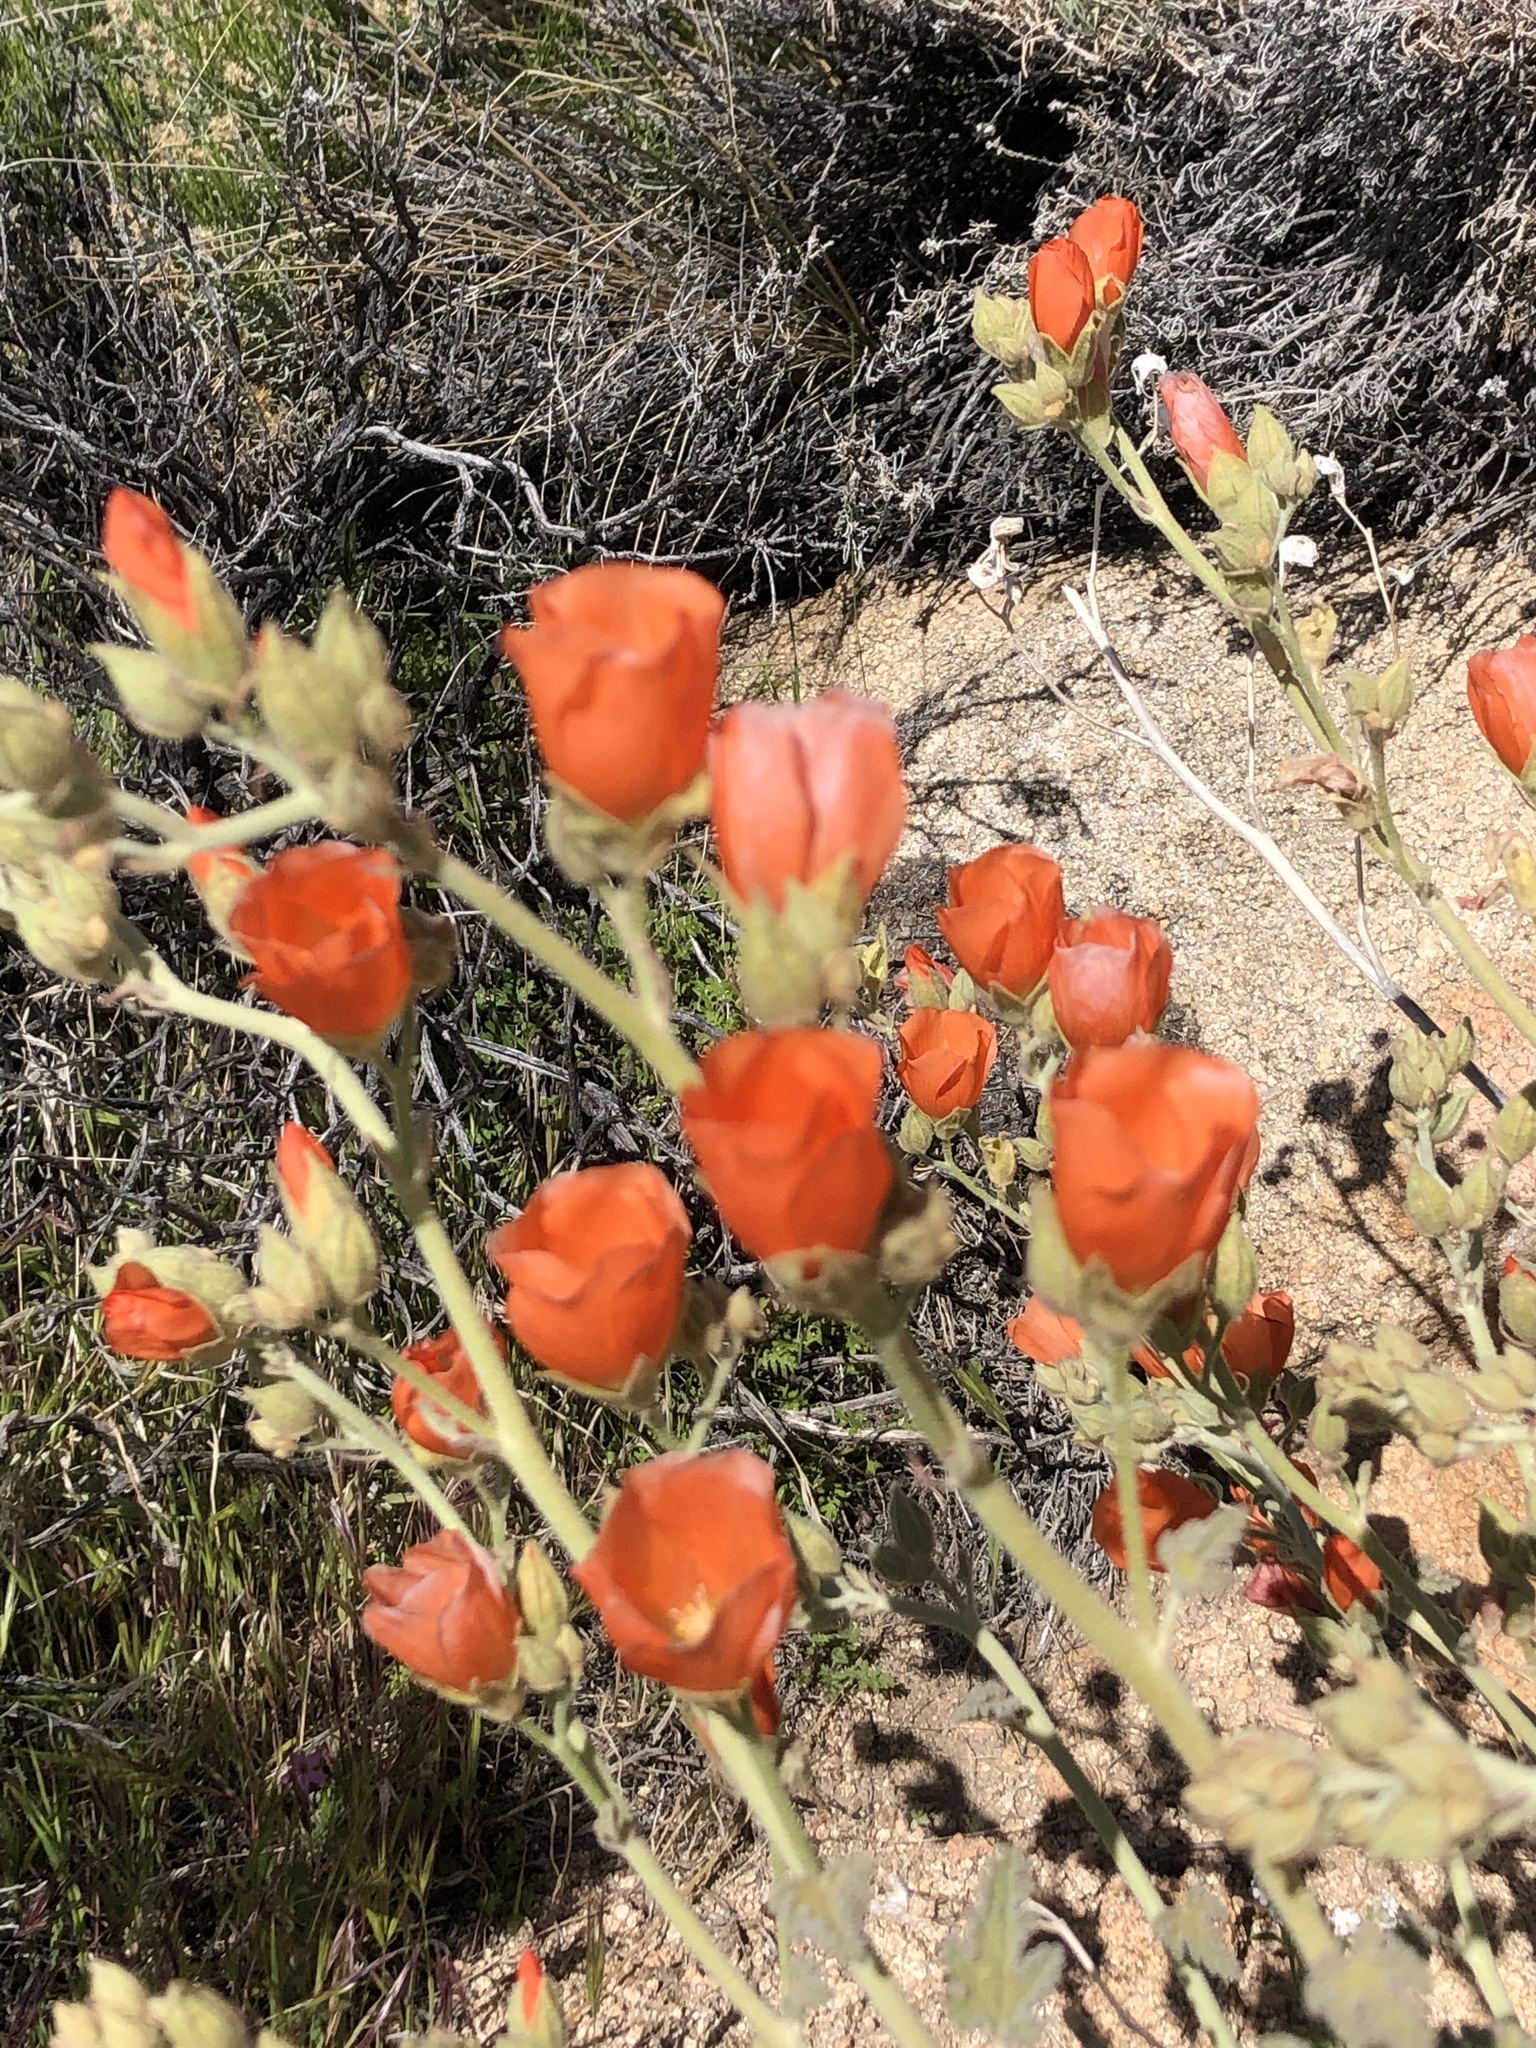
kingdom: Plantae
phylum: Tracheophyta
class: Magnoliopsida
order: Malvales
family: Malvaceae
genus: Sphaeralcea
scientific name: Sphaeralcea ambigua
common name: Apricot globe-mallow
